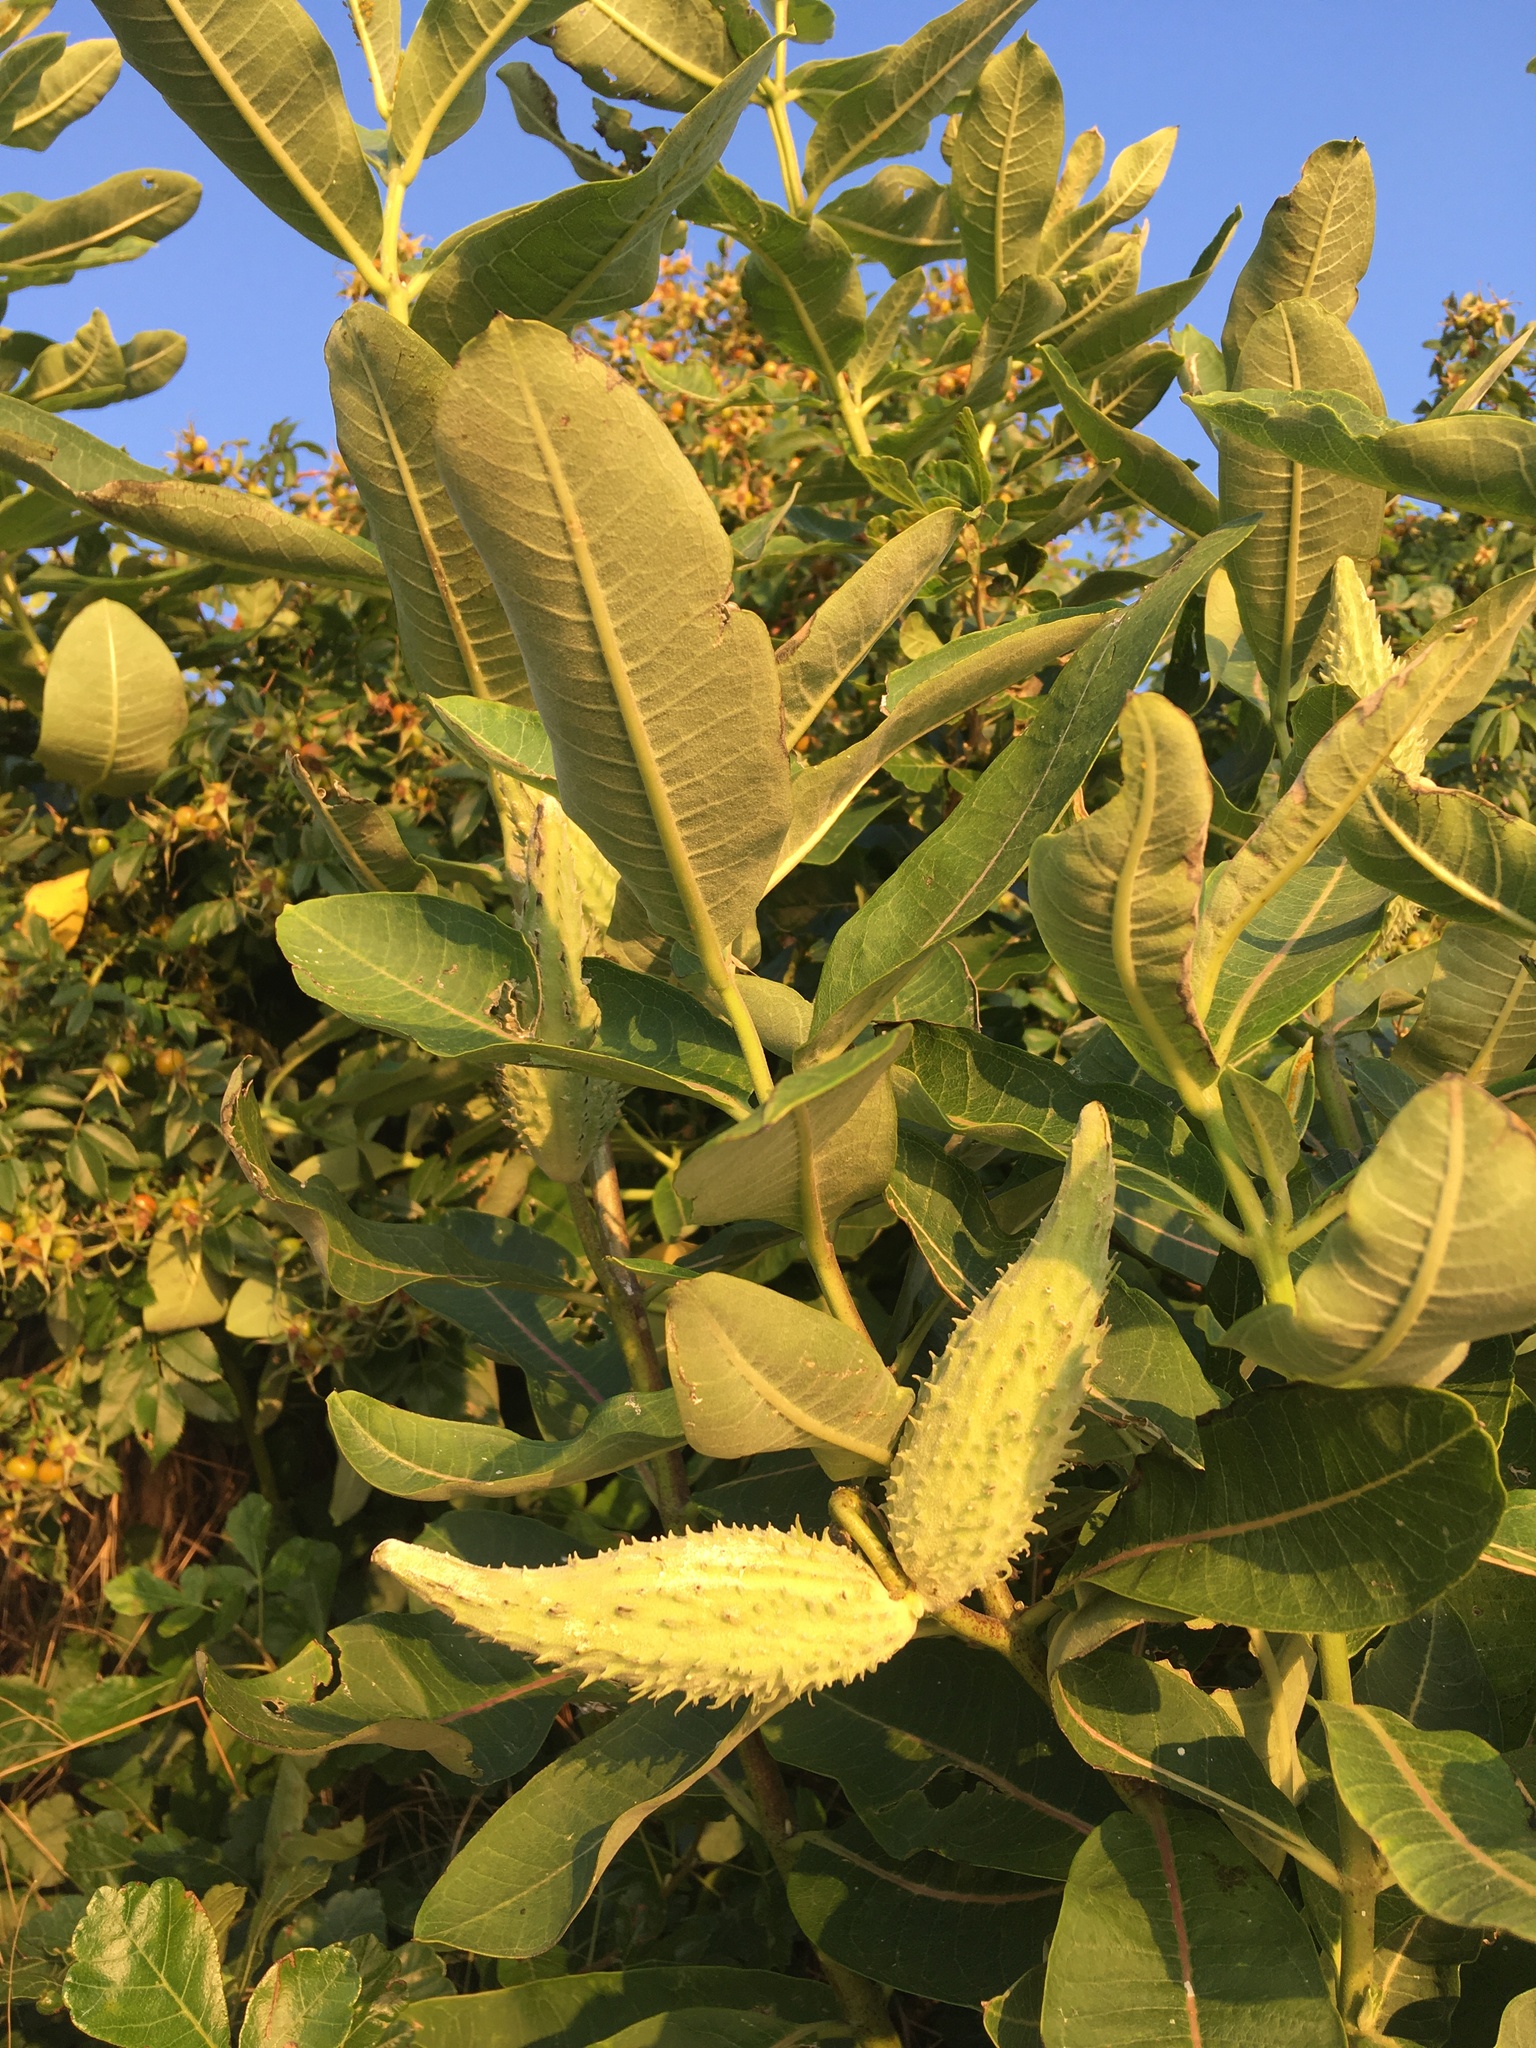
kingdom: Plantae
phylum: Tracheophyta
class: Magnoliopsida
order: Gentianales
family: Apocynaceae
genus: Asclepias
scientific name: Asclepias syriaca
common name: Common milkweed
